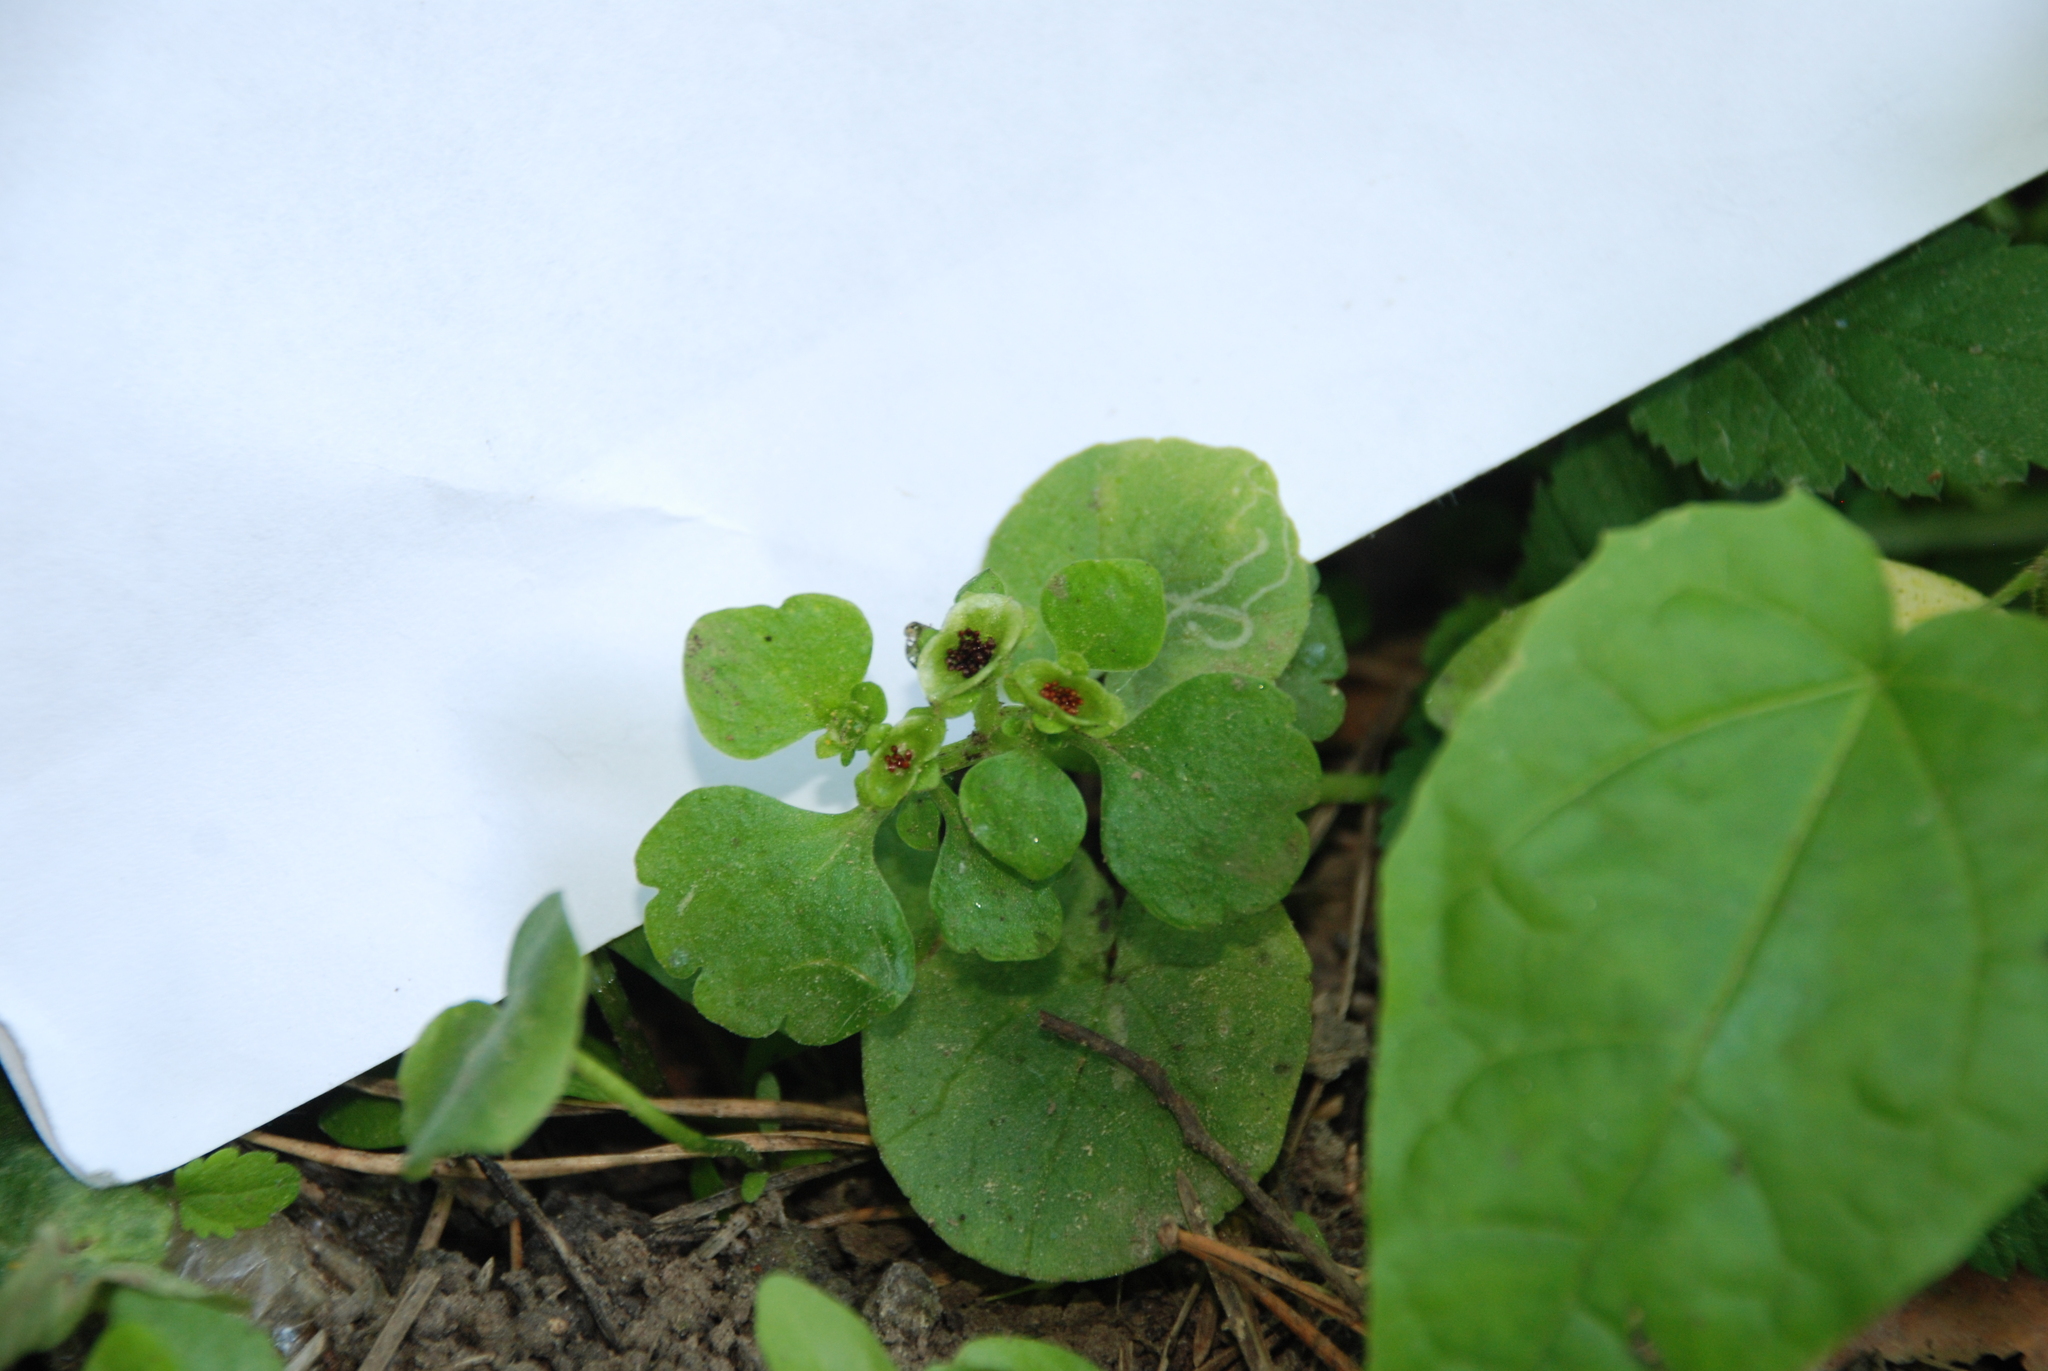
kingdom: Plantae
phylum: Tracheophyta
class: Magnoliopsida
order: Saxifragales
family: Saxifragaceae
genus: Chrysosplenium
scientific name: Chrysosplenium alternifolium
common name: Alternate-leaved golden-saxifrage
